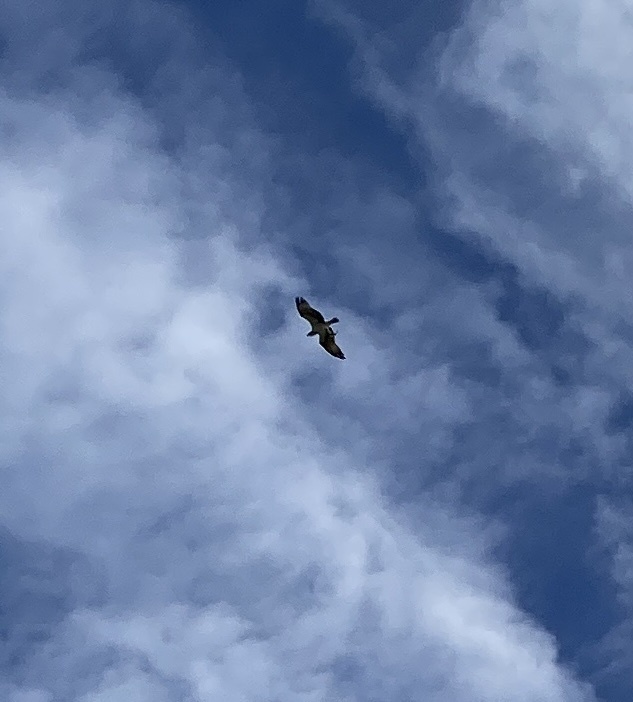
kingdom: Animalia
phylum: Chordata
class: Aves
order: Accipitriformes
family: Pandionidae
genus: Pandion
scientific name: Pandion haliaetus
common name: Osprey
